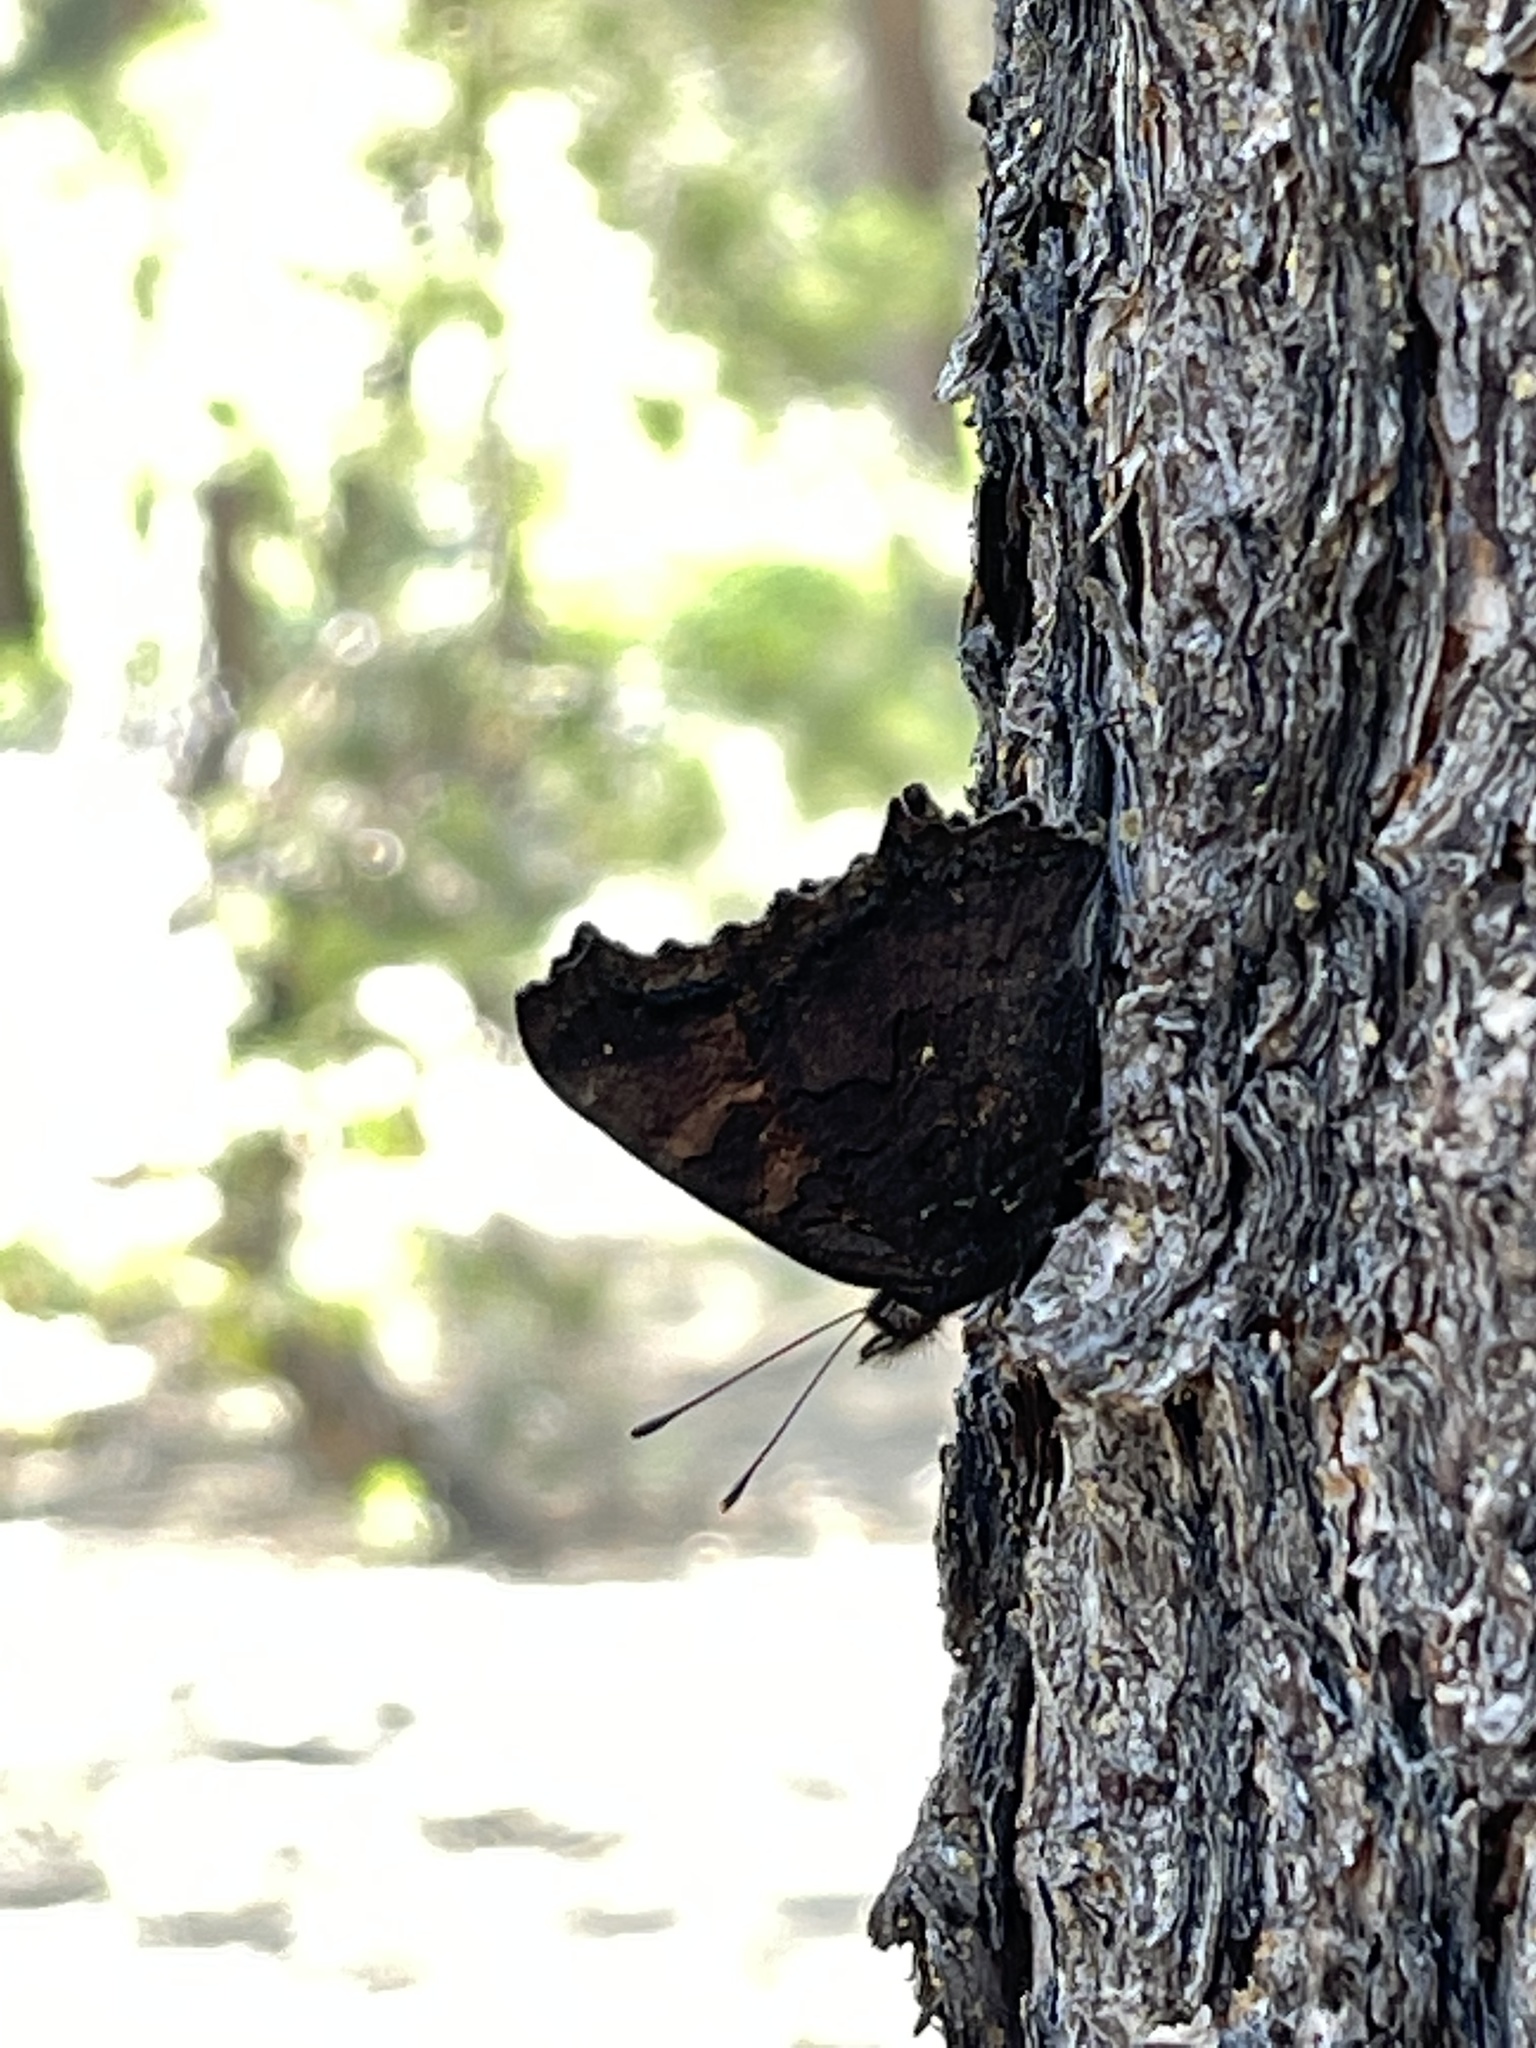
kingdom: Animalia
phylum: Arthropoda
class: Insecta
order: Lepidoptera
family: Nymphalidae
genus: Nymphalis
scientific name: Nymphalis californica
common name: California tortoiseshell
